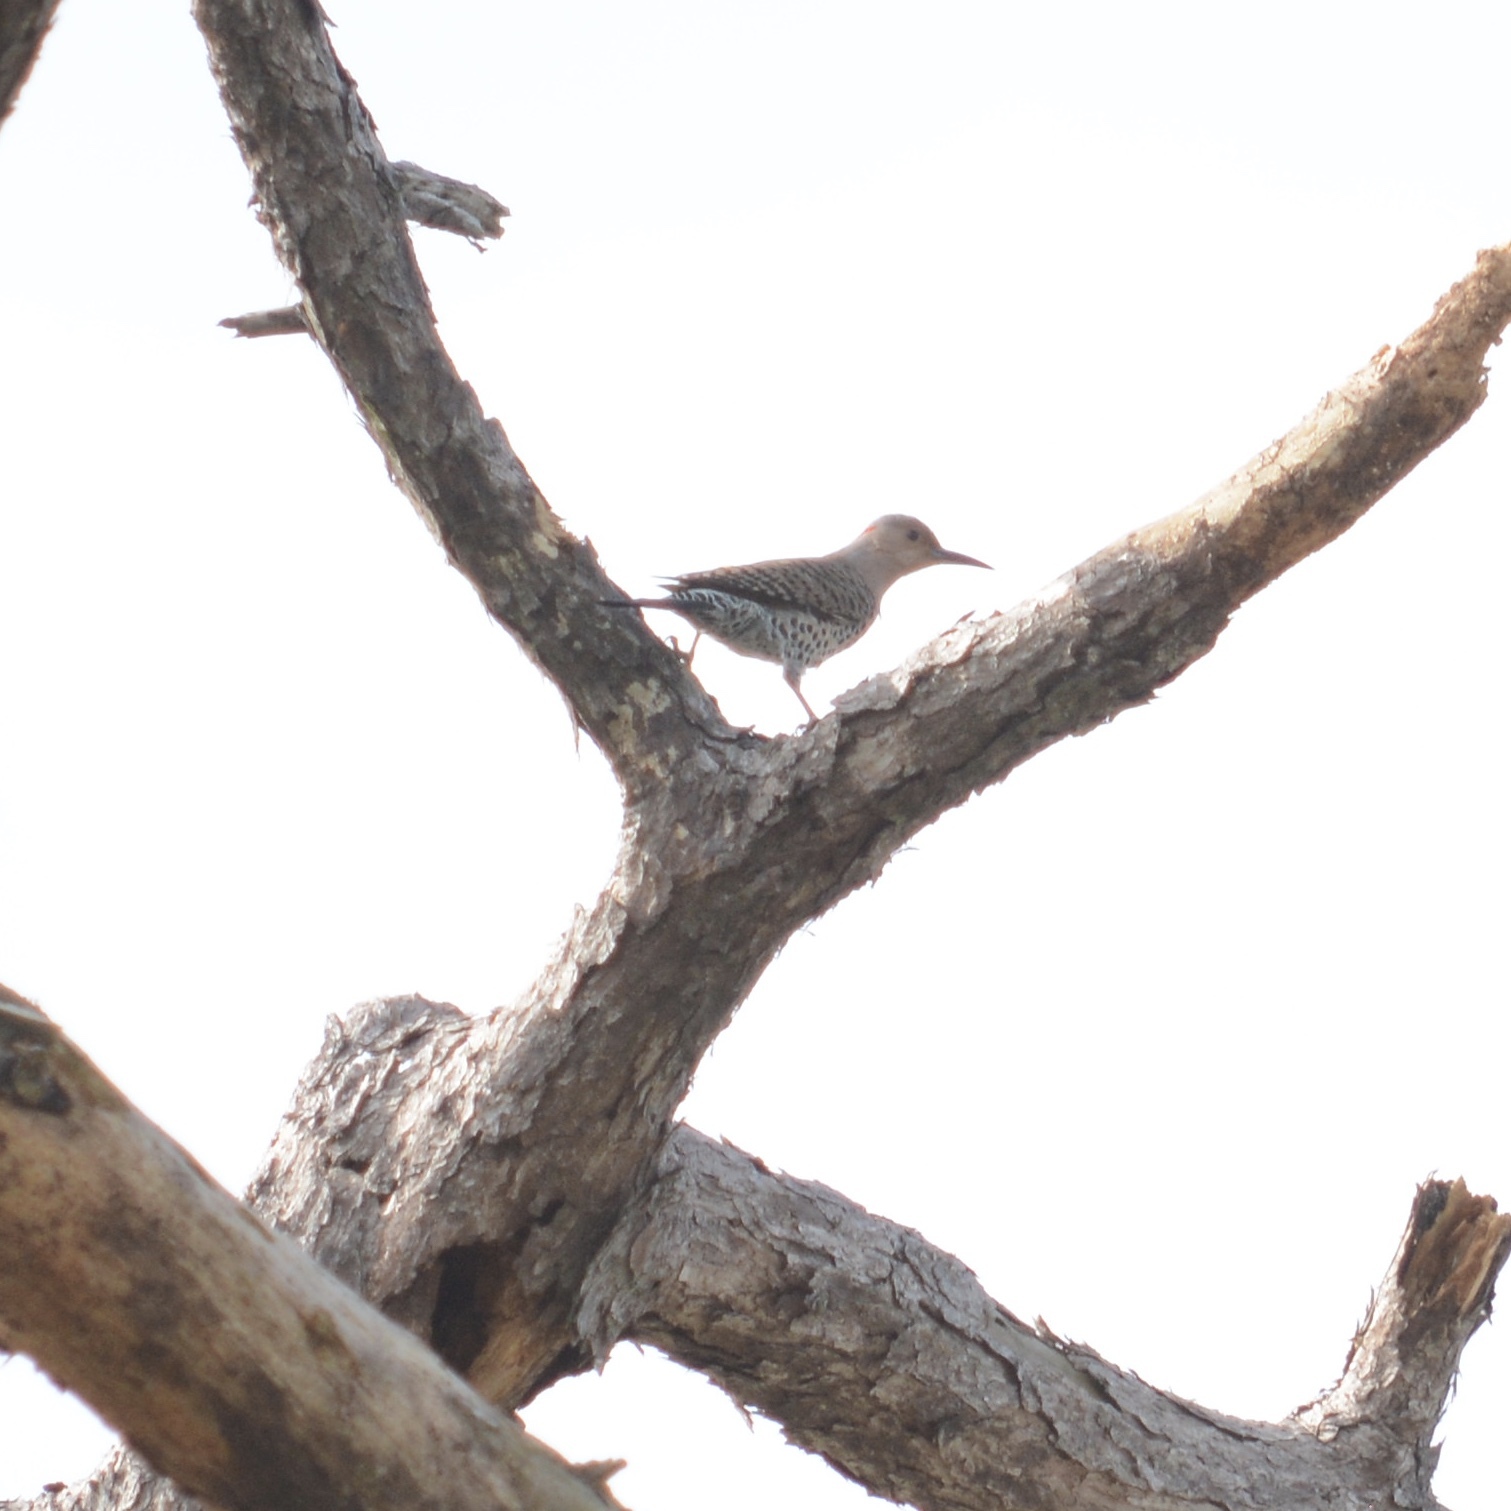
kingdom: Animalia
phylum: Chordata
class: Aves
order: Piciformes
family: Picidae
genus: Colaptes
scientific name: Colaptes auratus
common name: Northern flicker
